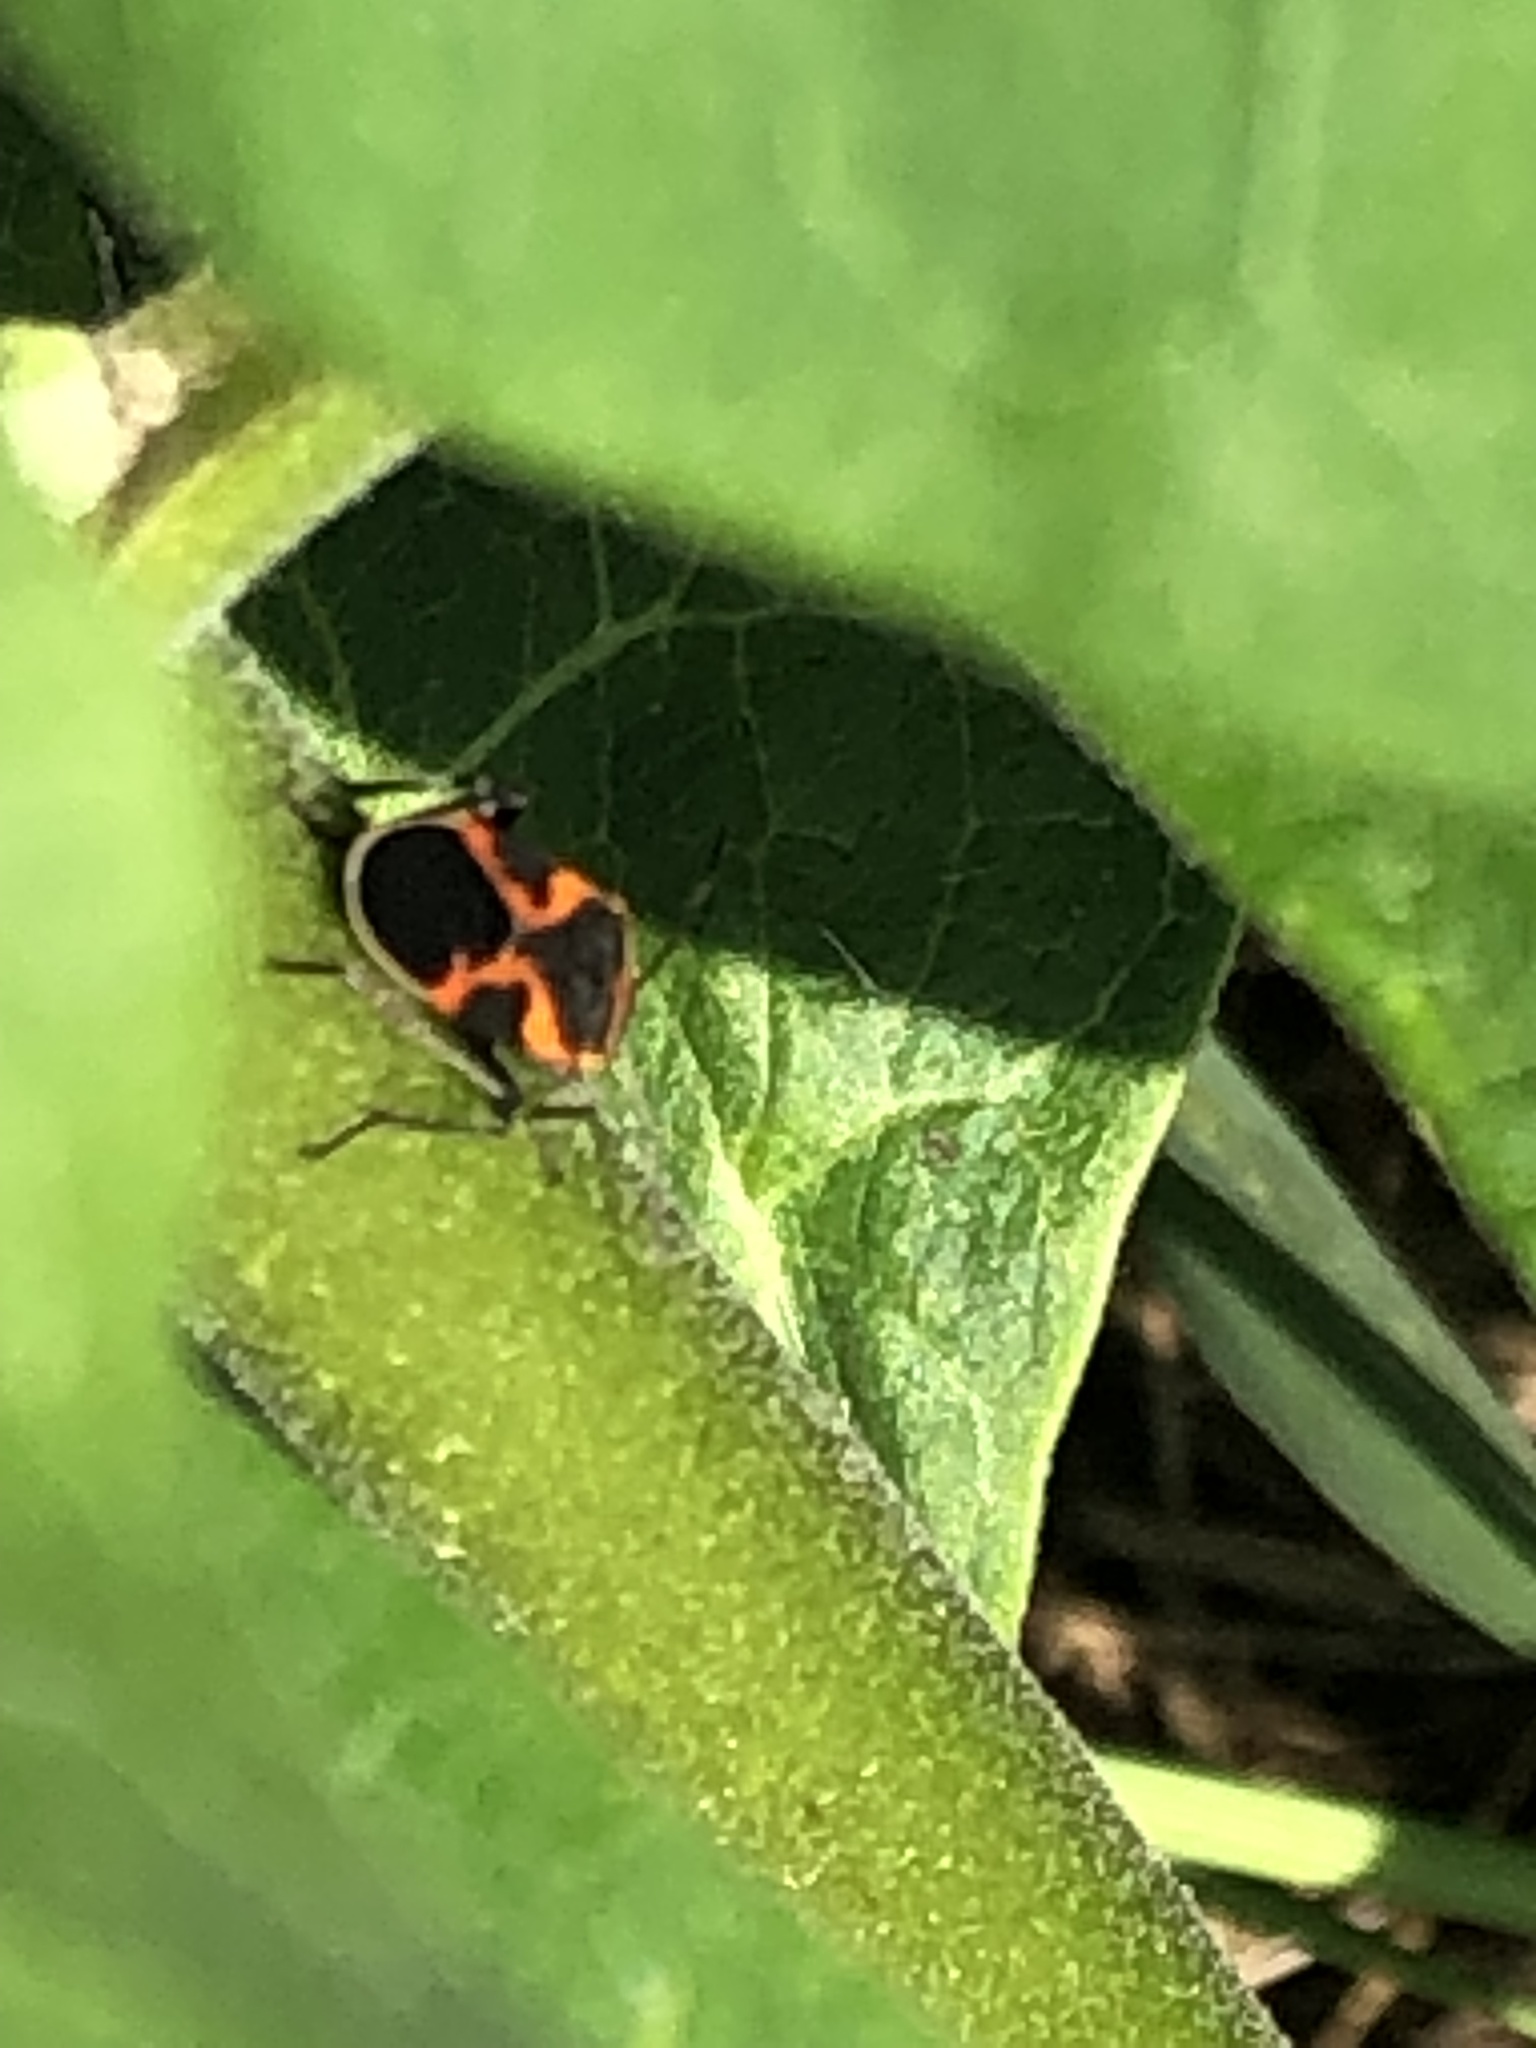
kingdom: Animalia
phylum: Arthropoda
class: Insecta
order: Hemiptera
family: Lygaeidae
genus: Lygaeus
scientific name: Lygaeus kalmii
